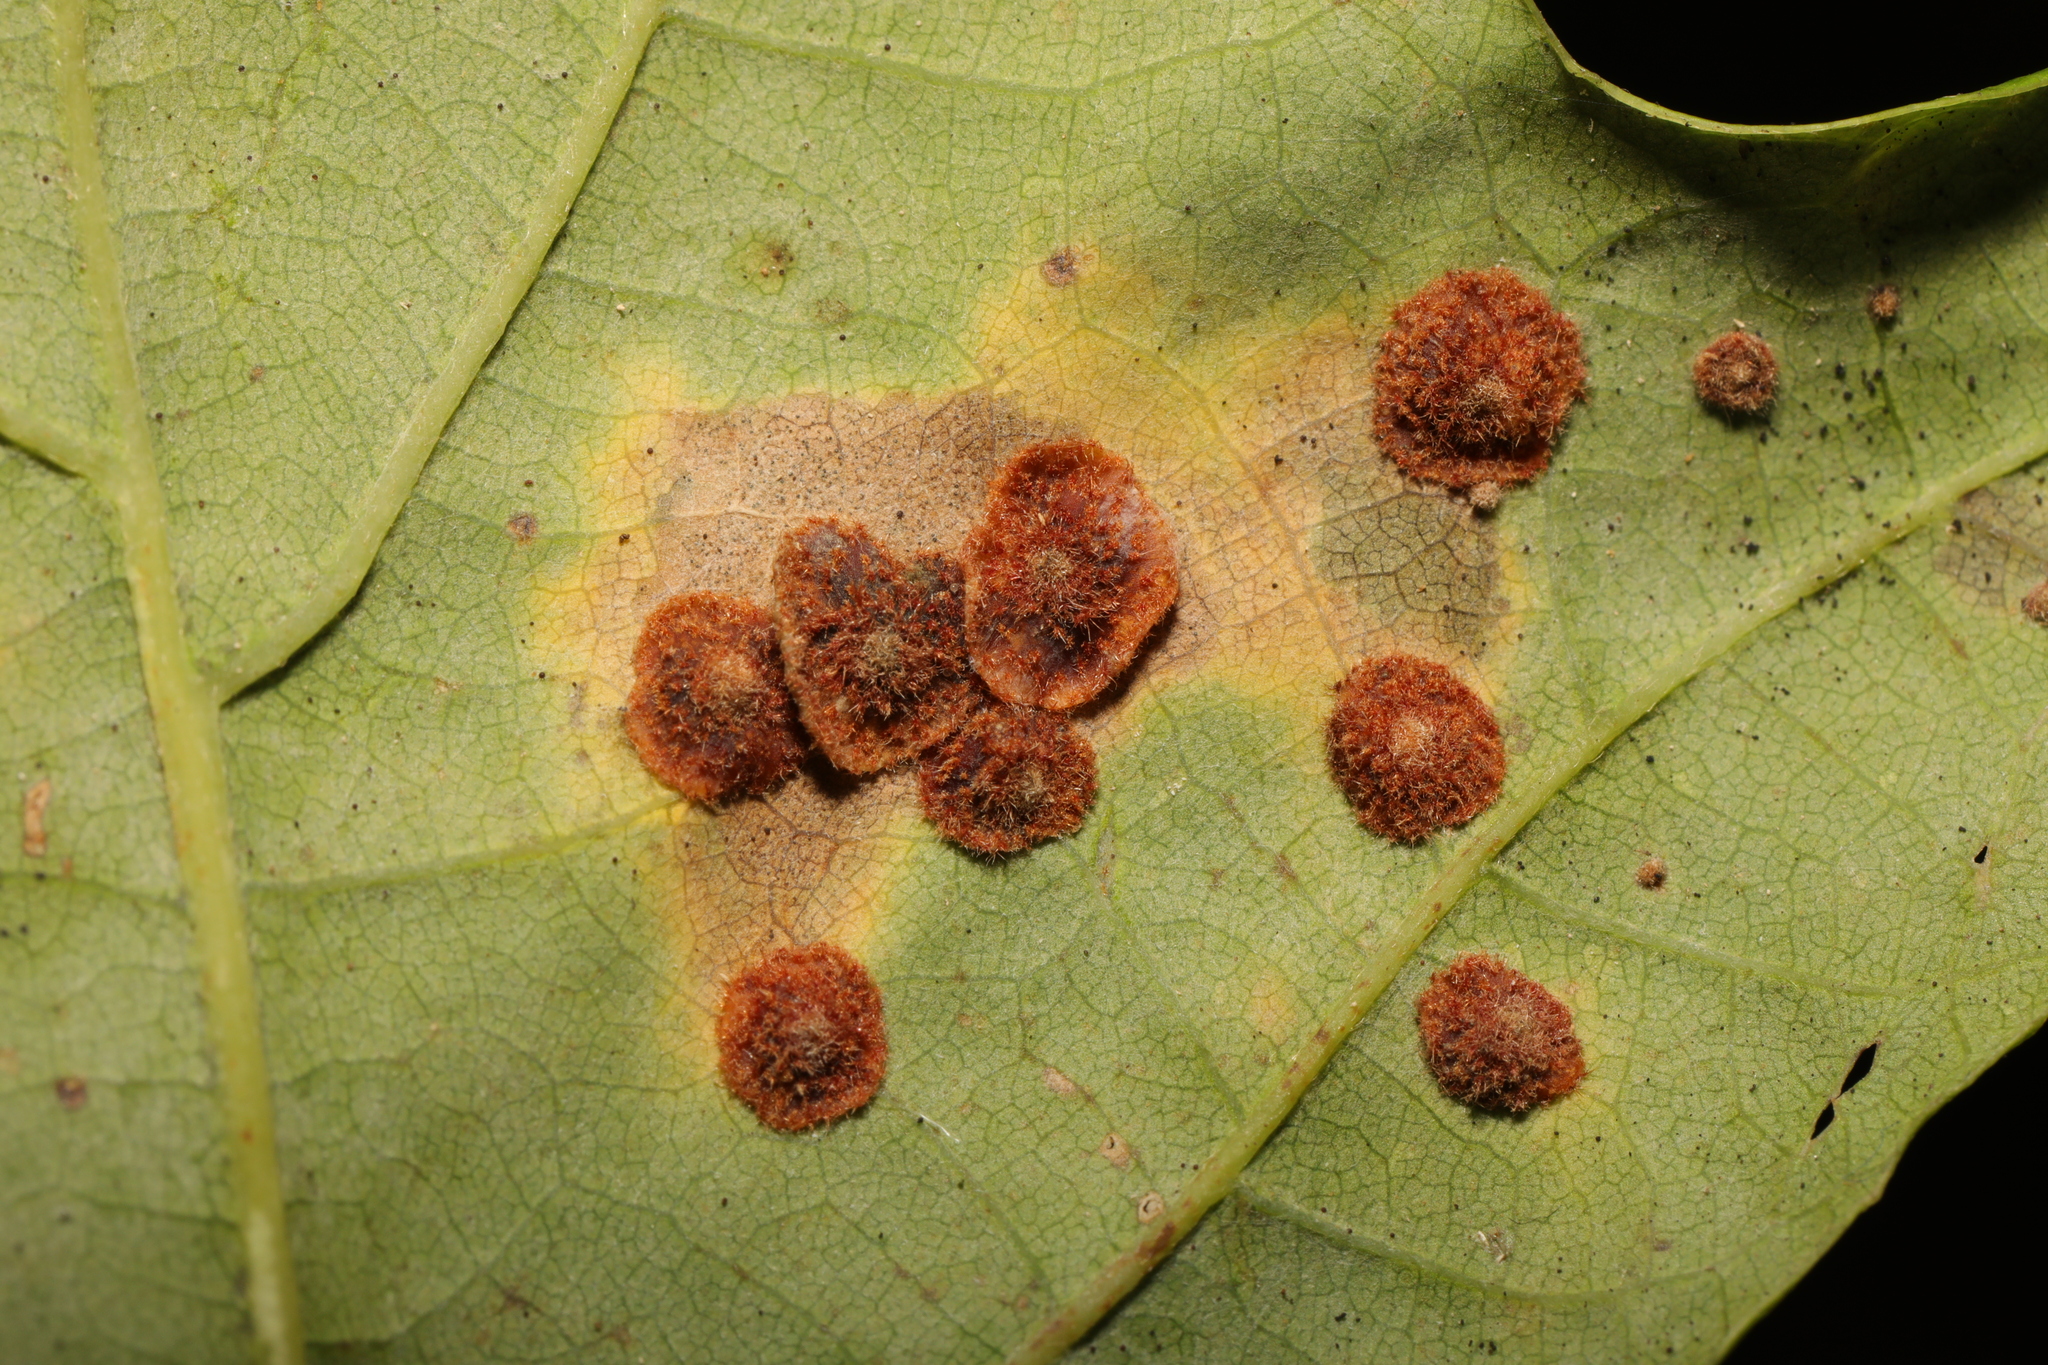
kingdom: Animalia
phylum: Arthropoda
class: Insecta
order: Hymenoptera
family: Cynipidae
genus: Neuroterus
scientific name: Neuroterus quercusbaccarum
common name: Common spangle gall
